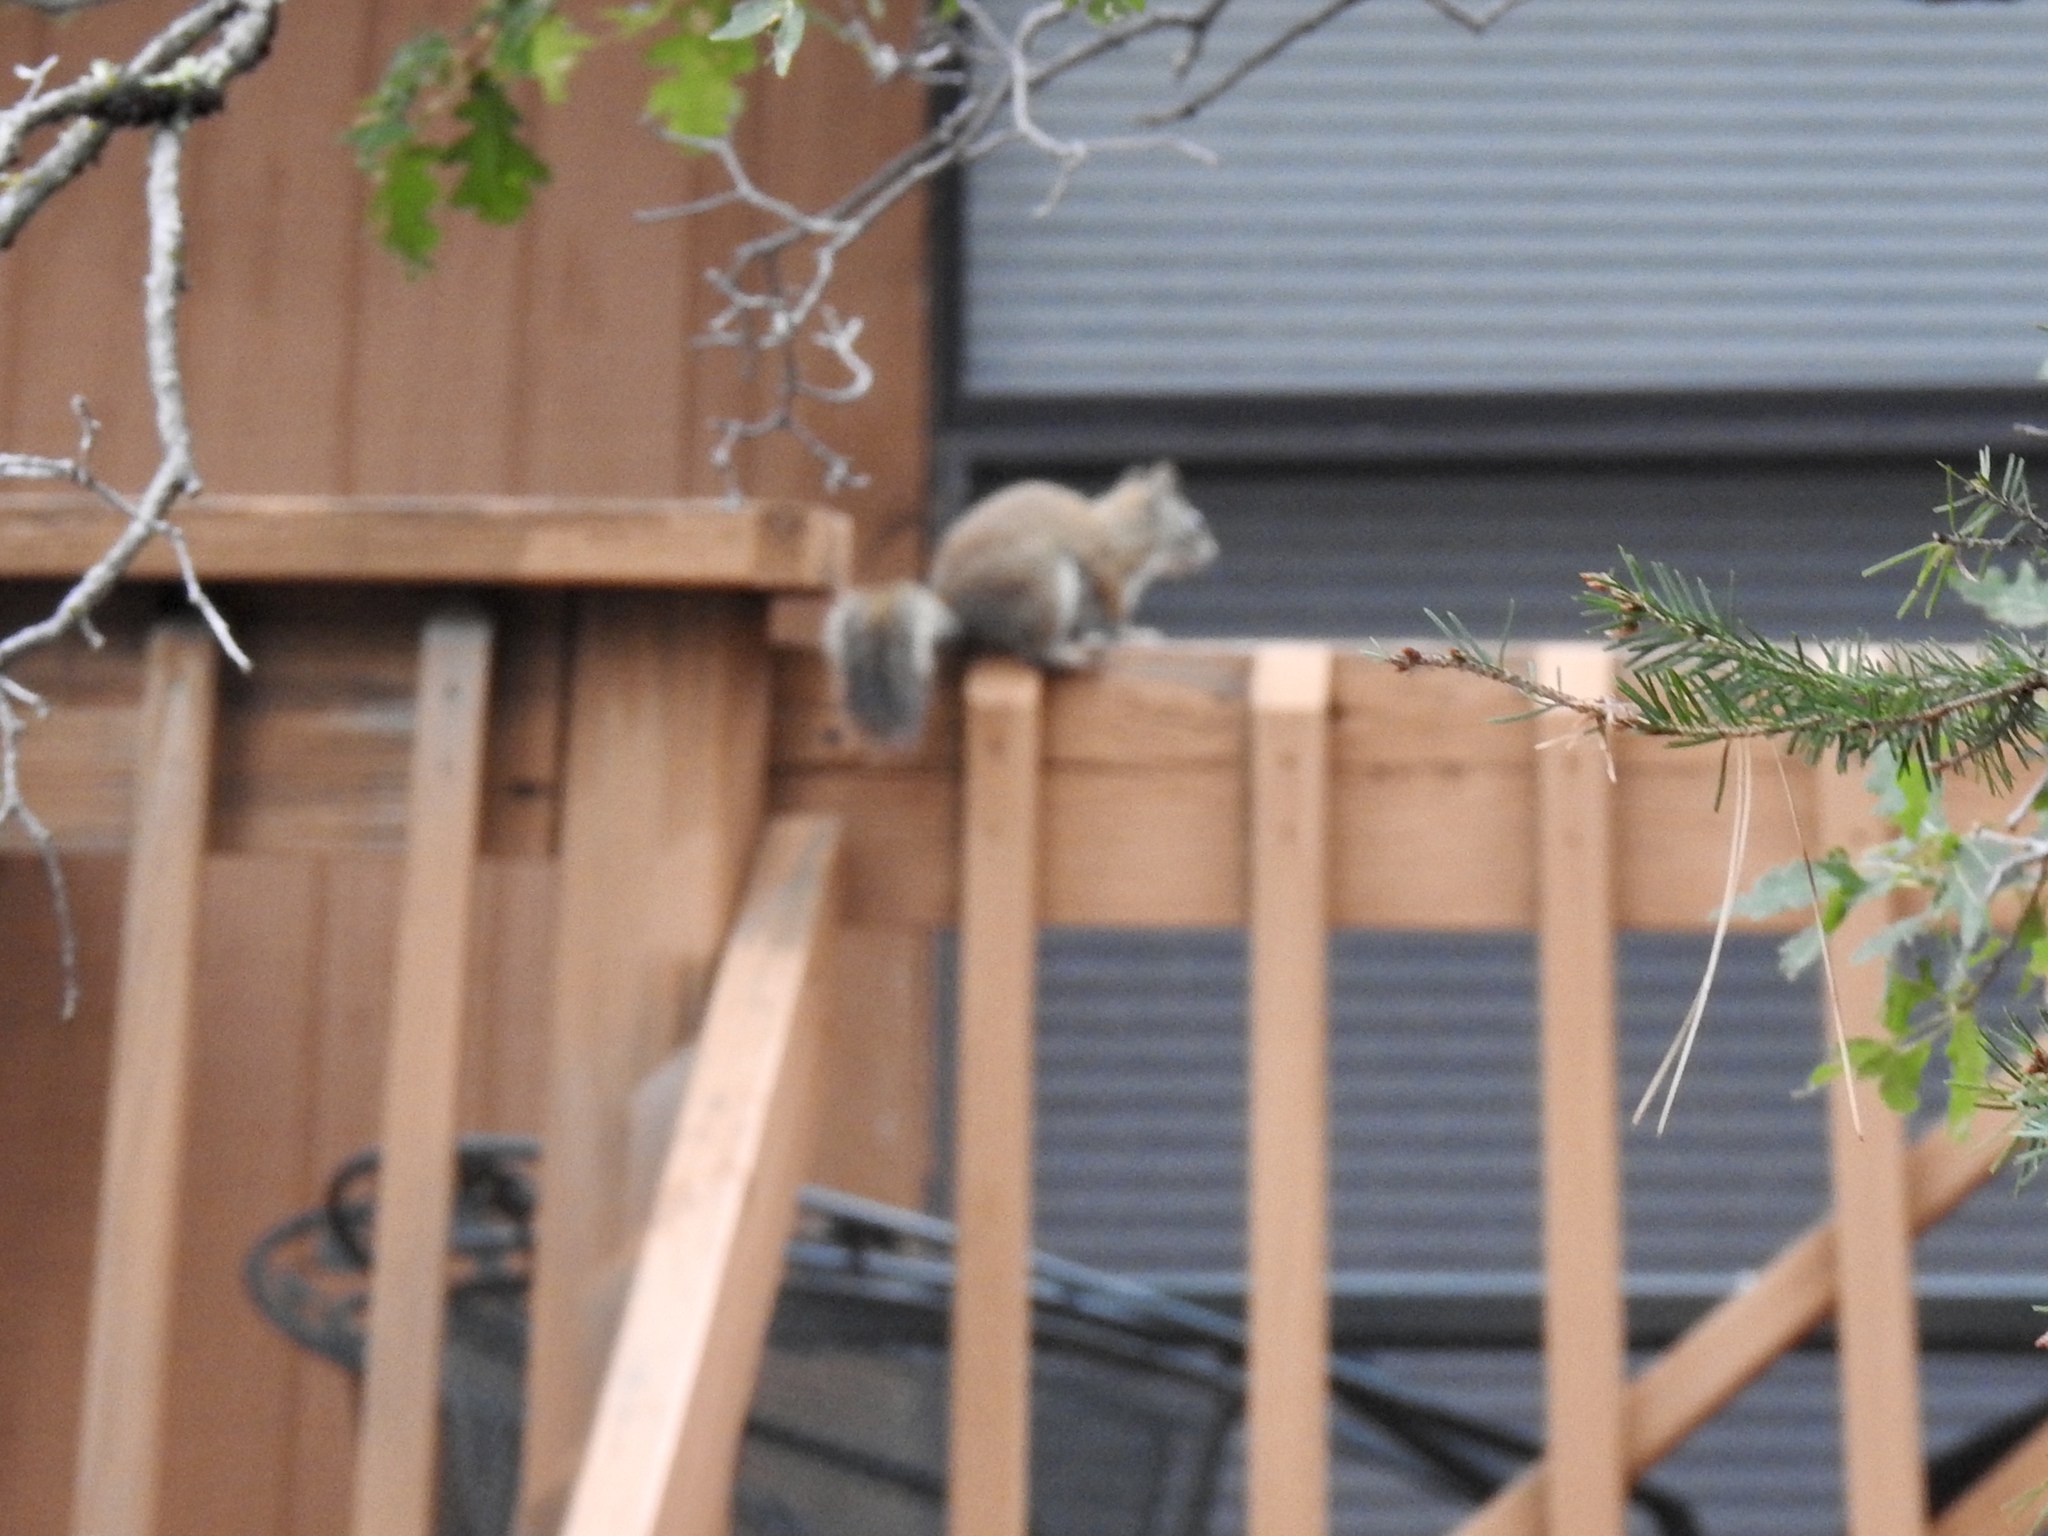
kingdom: Animalia
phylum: Chordata
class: Mammalia
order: Rodentia
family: Sciuridae
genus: Tamiasciurus
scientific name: Tamiasciurus hudsonicus
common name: Red squirrel
